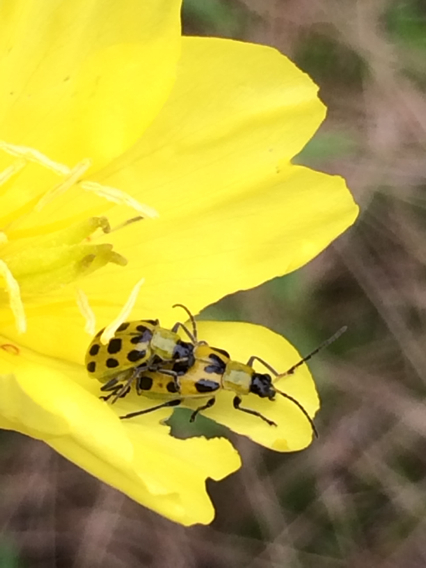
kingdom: Animalia
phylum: Arthropoda
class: Insecta
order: Coleoptera
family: Chrysomelidae
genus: Diabrotica
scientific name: Diabrotica undecimpunctata
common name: Spotted cucumber beetle
